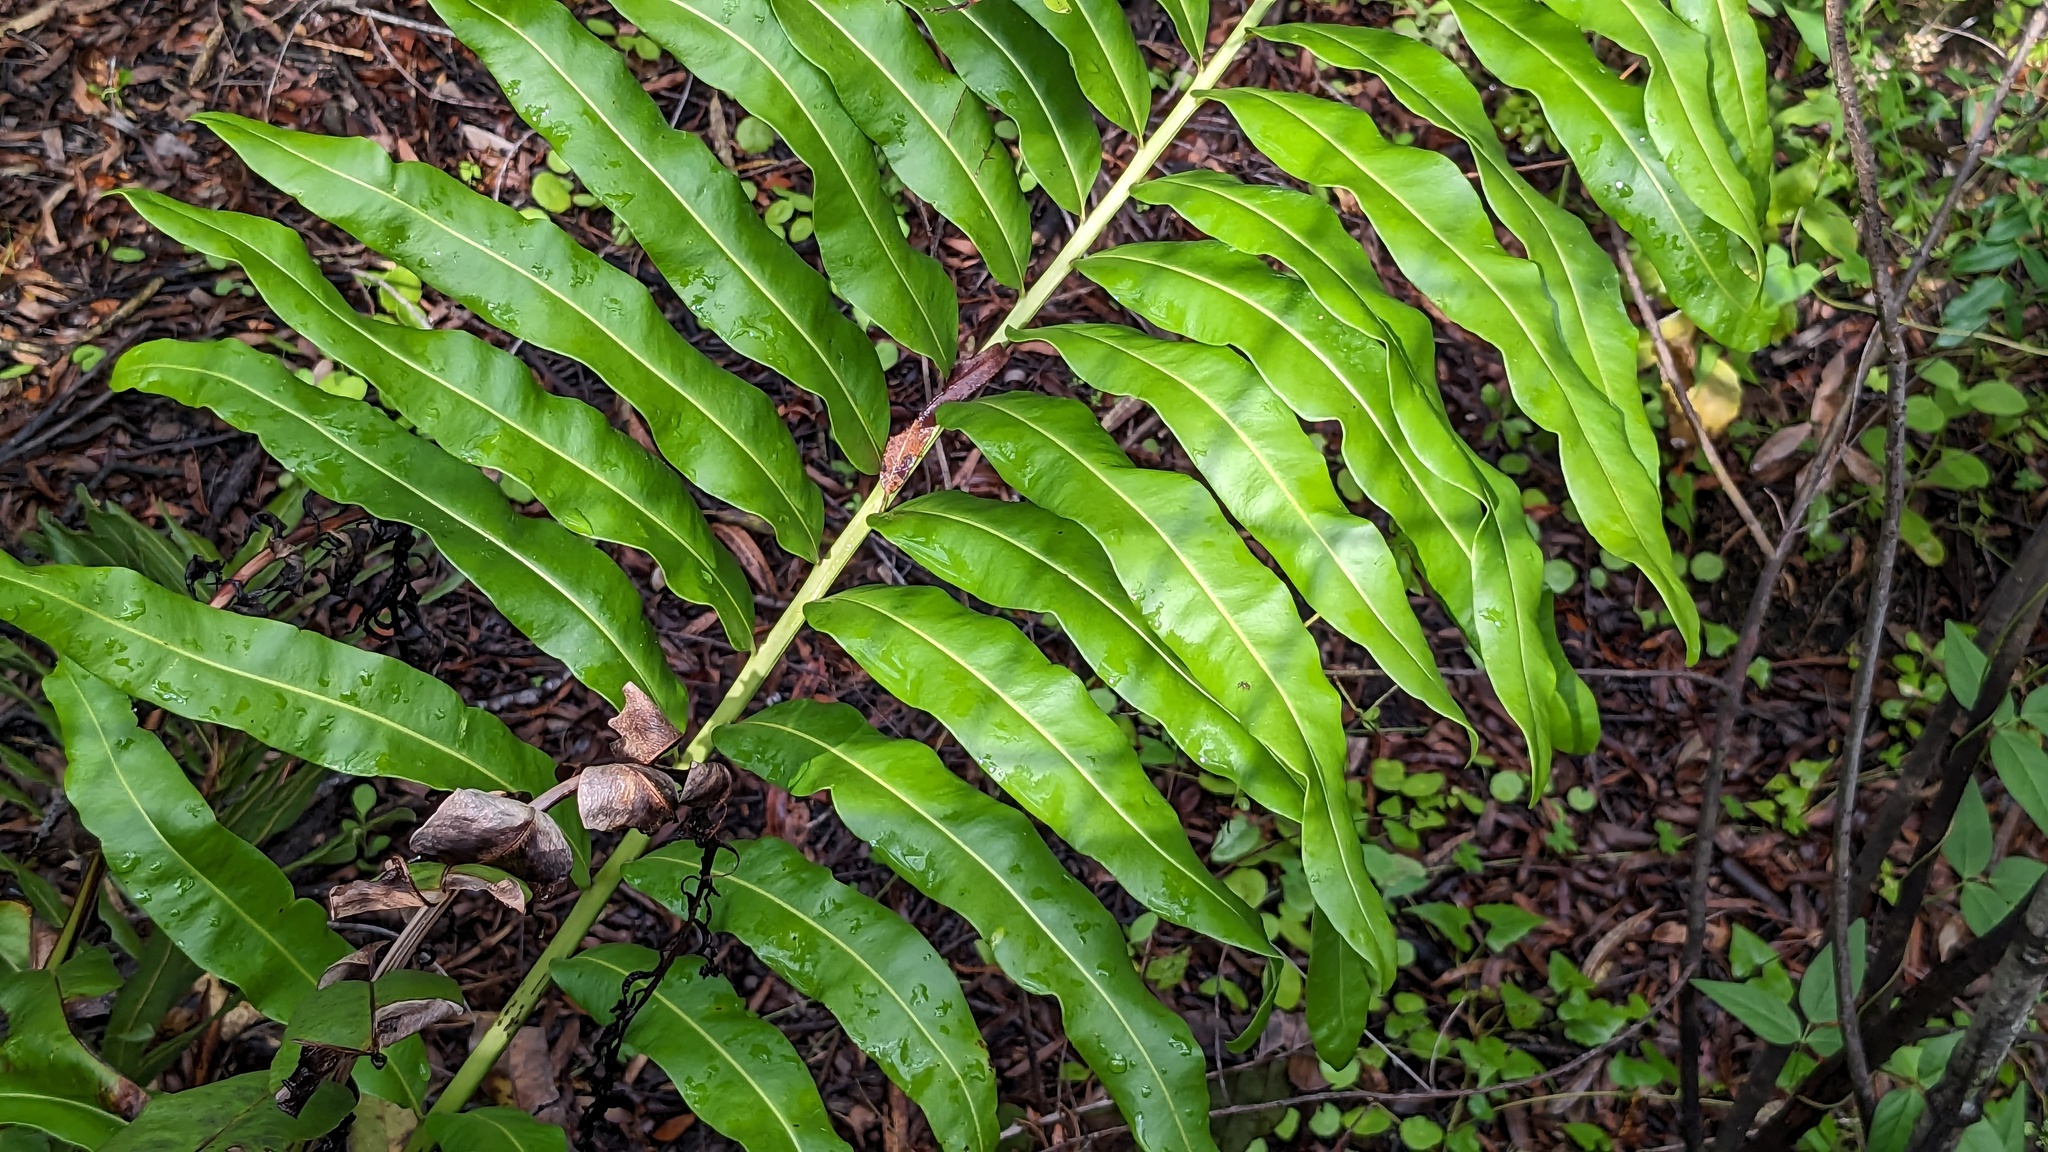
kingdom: Plantae
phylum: Tracheophyta
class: Polypodiopsida
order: Polypodiales
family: Pteridaceae
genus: Acrostichum
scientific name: Acrostichum danaeifolium
